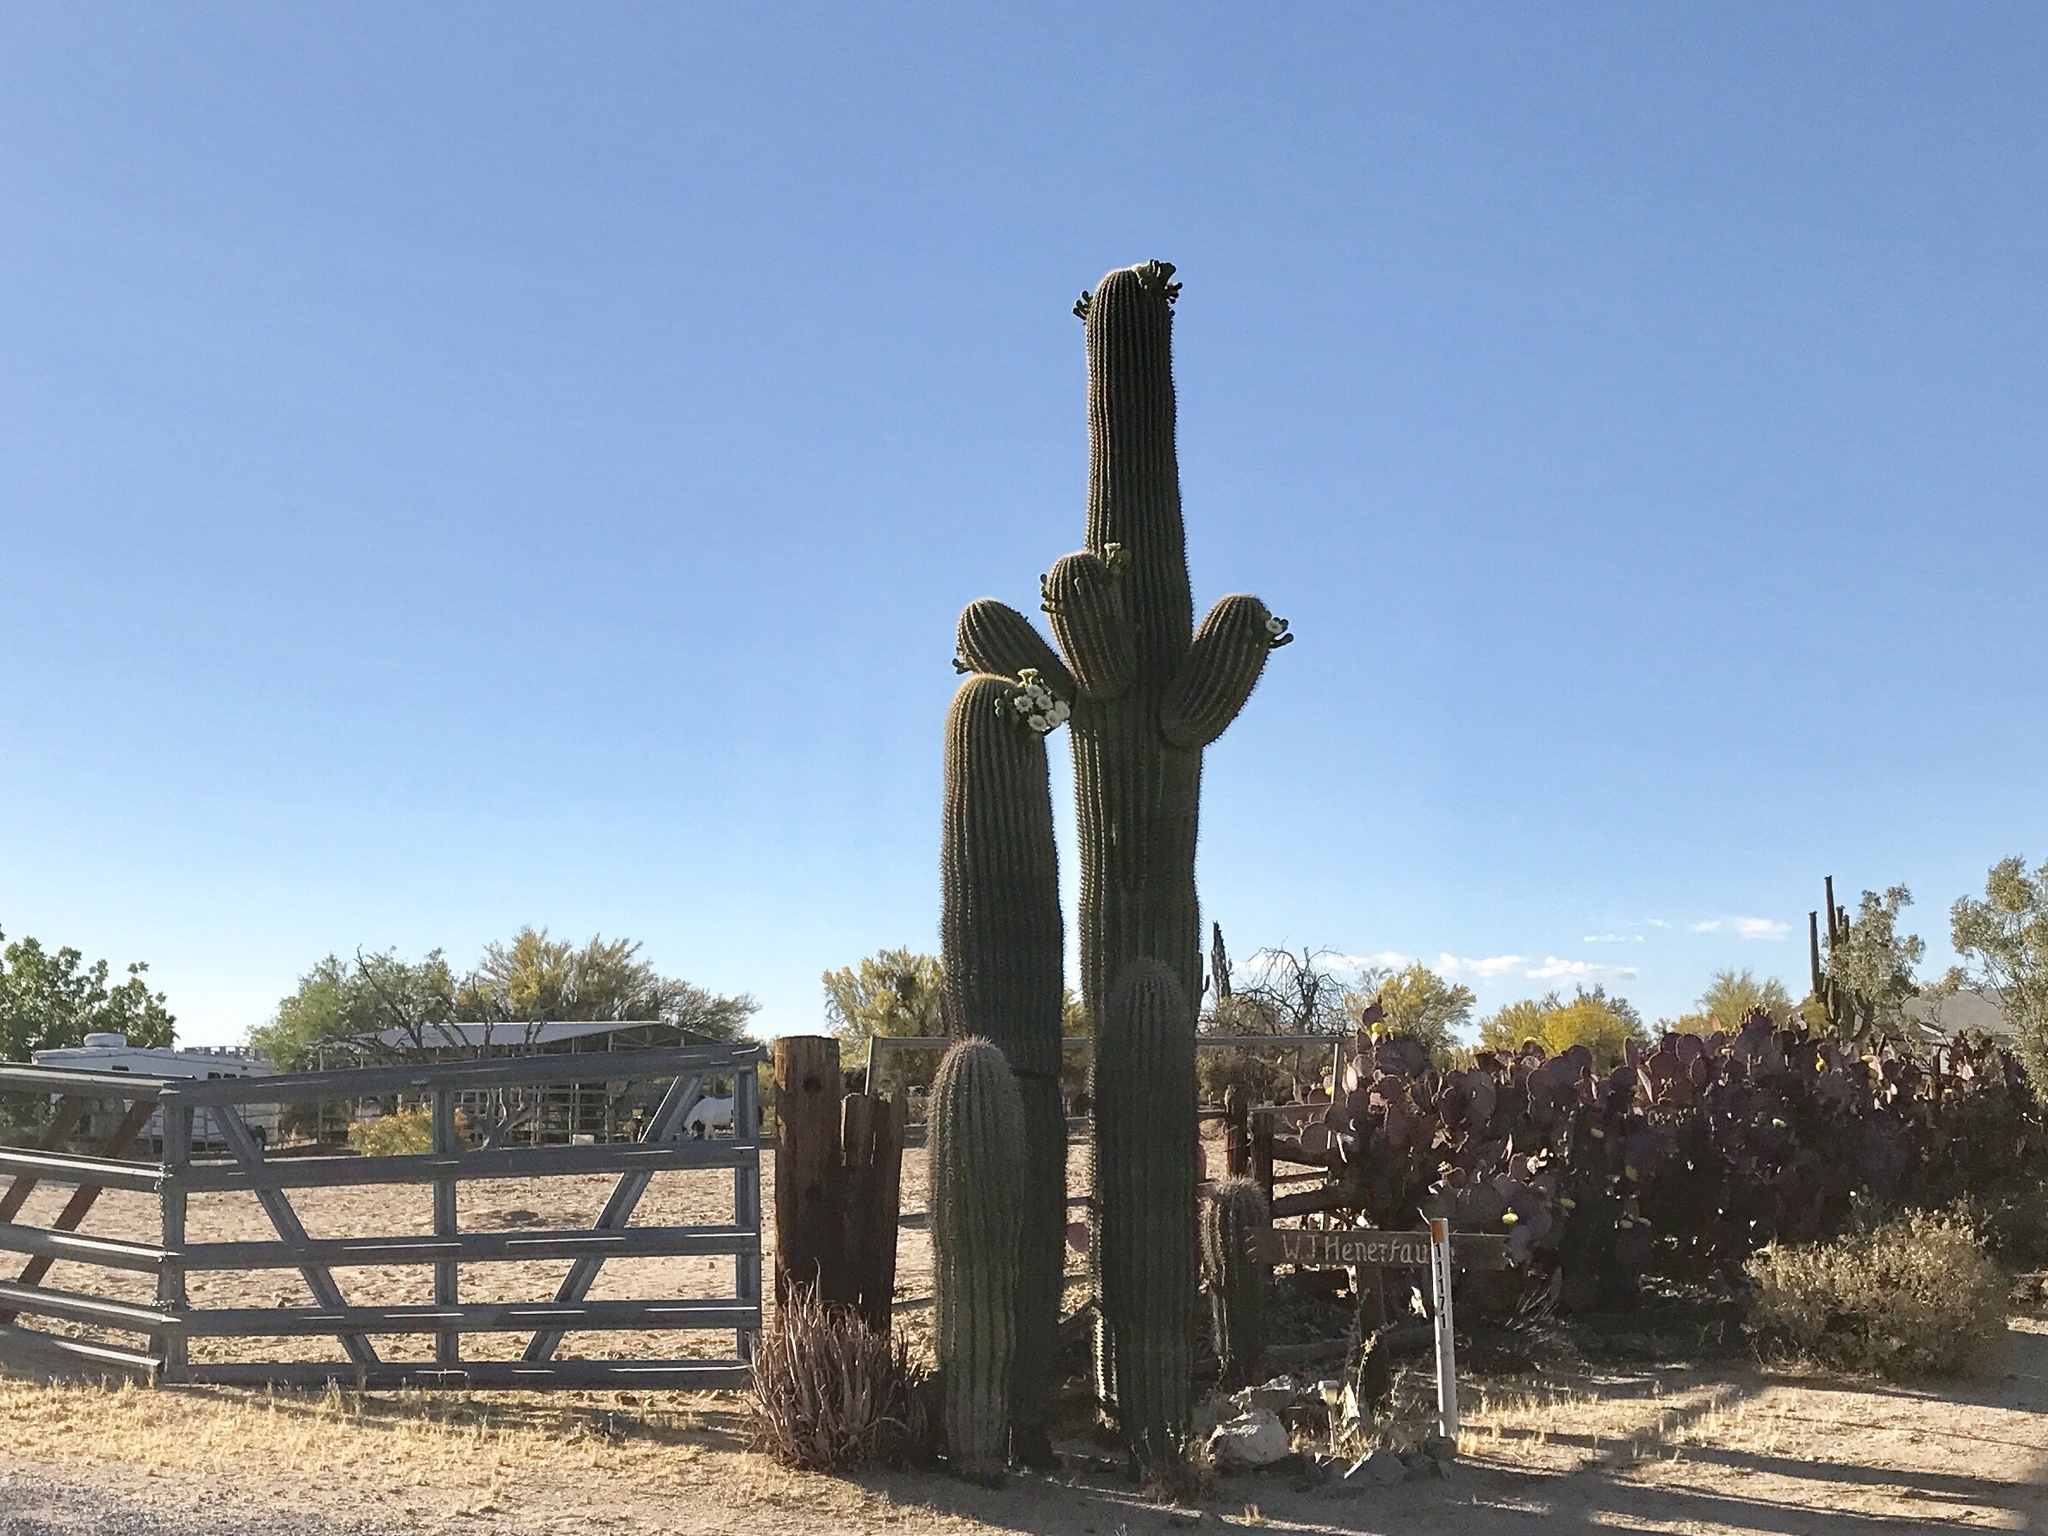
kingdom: Plantae
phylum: Tracheophyta
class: Magnoliopsida
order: Caryophyllales
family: Cactaceae
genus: Carnegiea
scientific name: Carnegiea gigantea
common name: Saguaro
